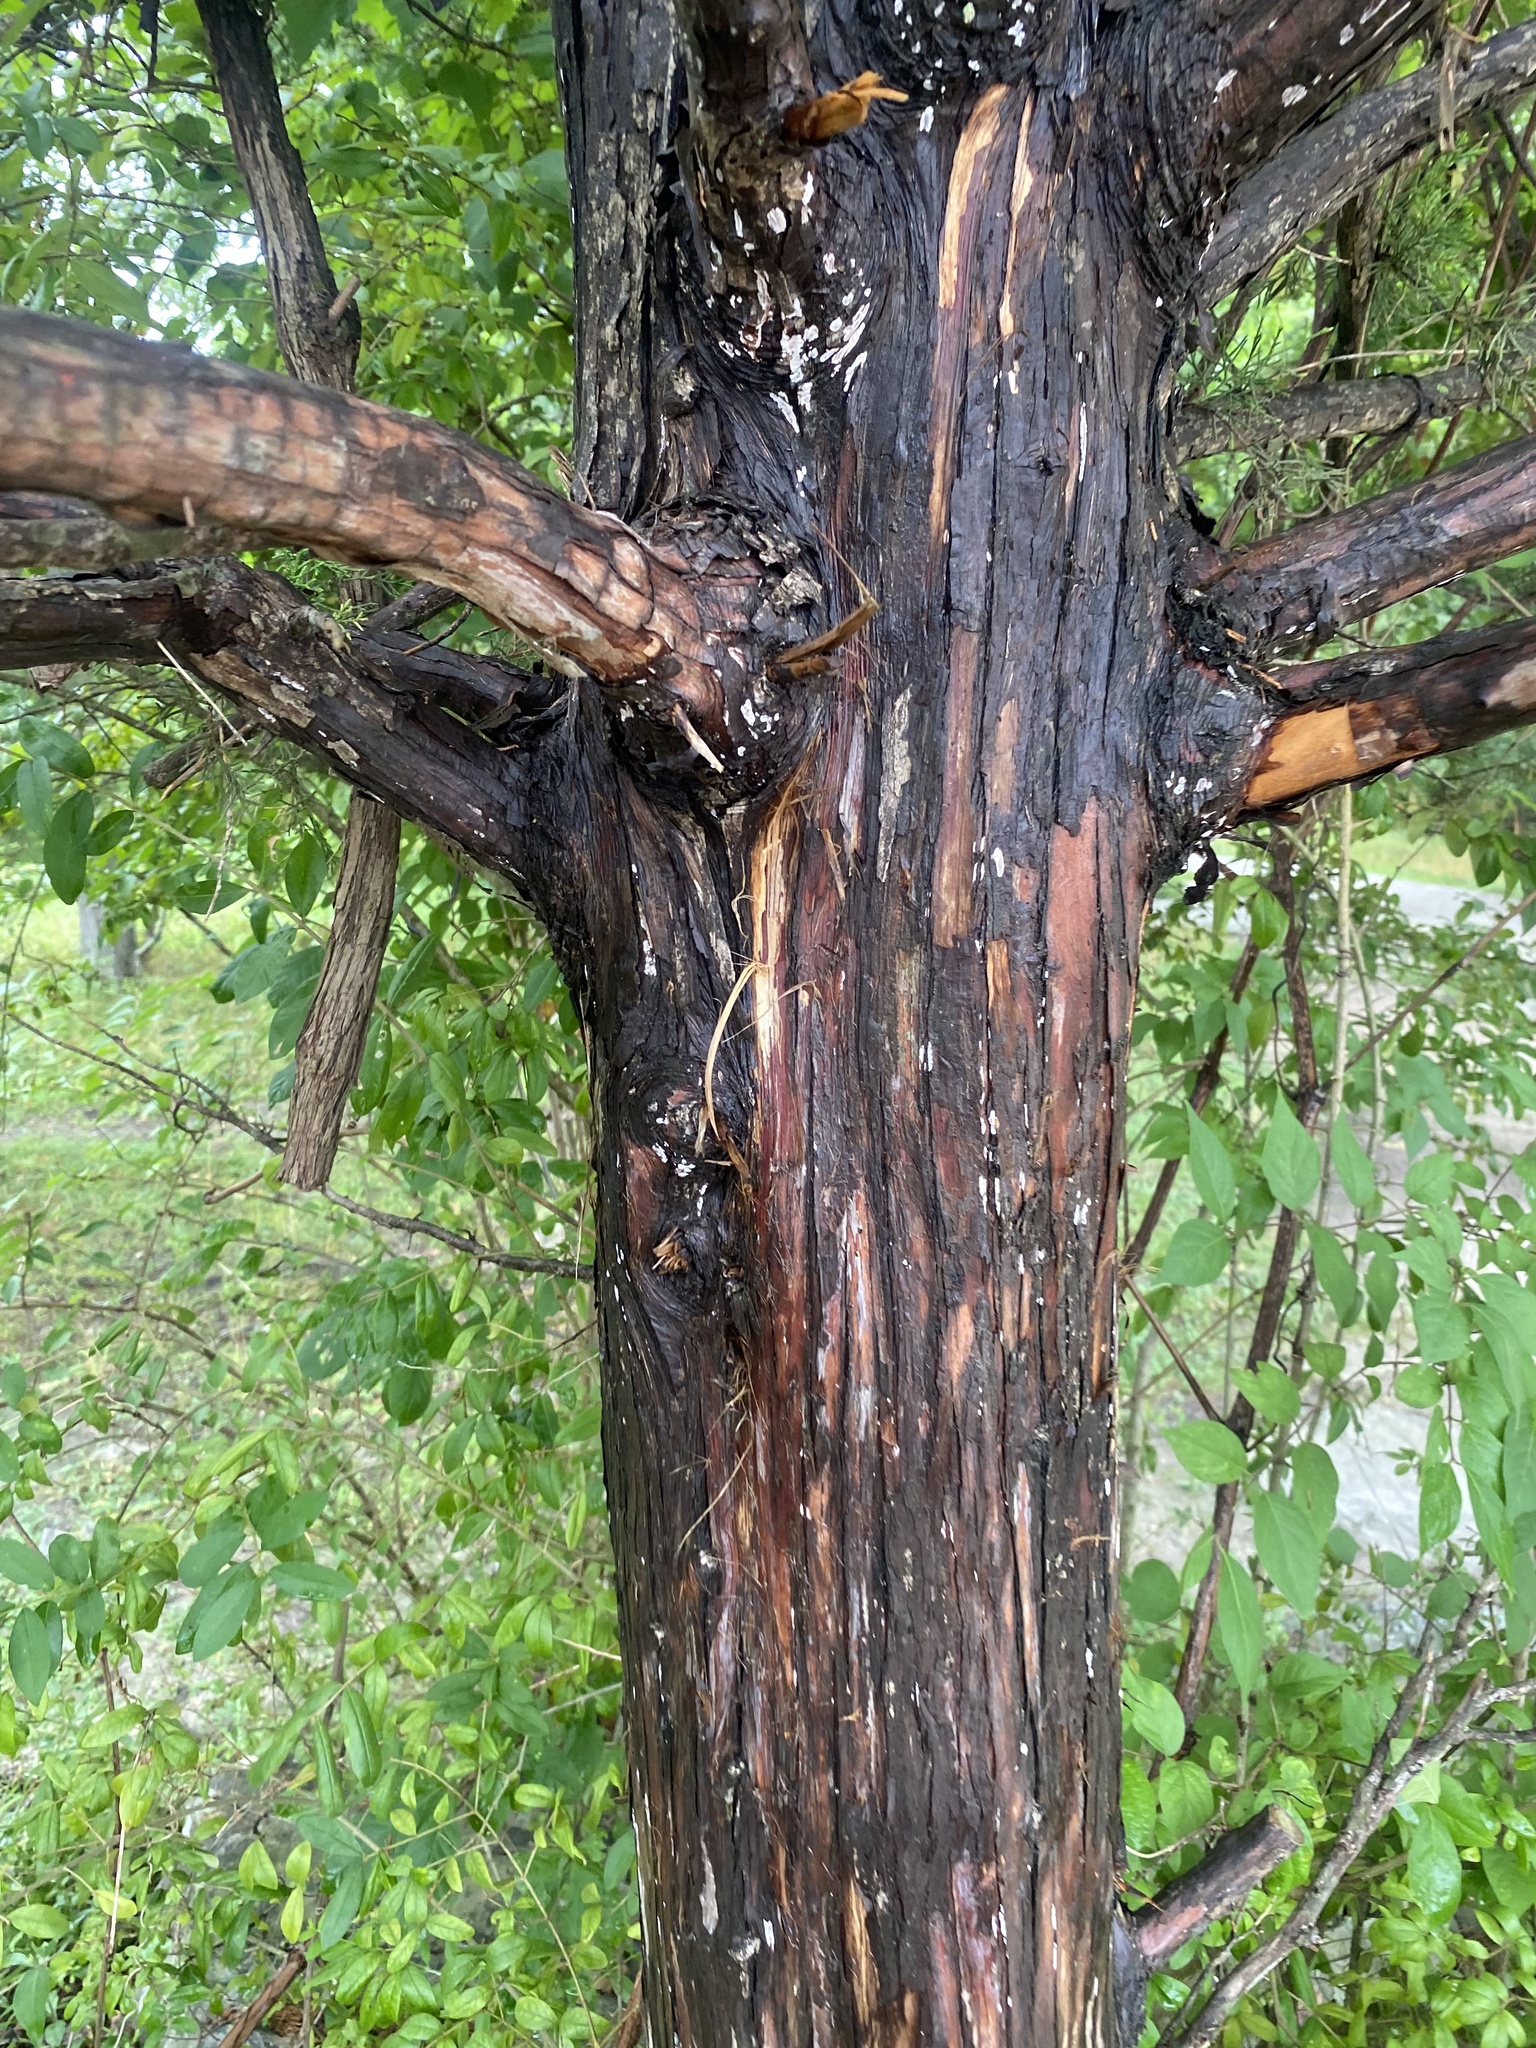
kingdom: Plantae
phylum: Tracheophyta
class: Pinopsida
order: Pinales
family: Cupressaceae
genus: Juniperus
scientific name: Juniperus virginiana
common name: Red juniper
